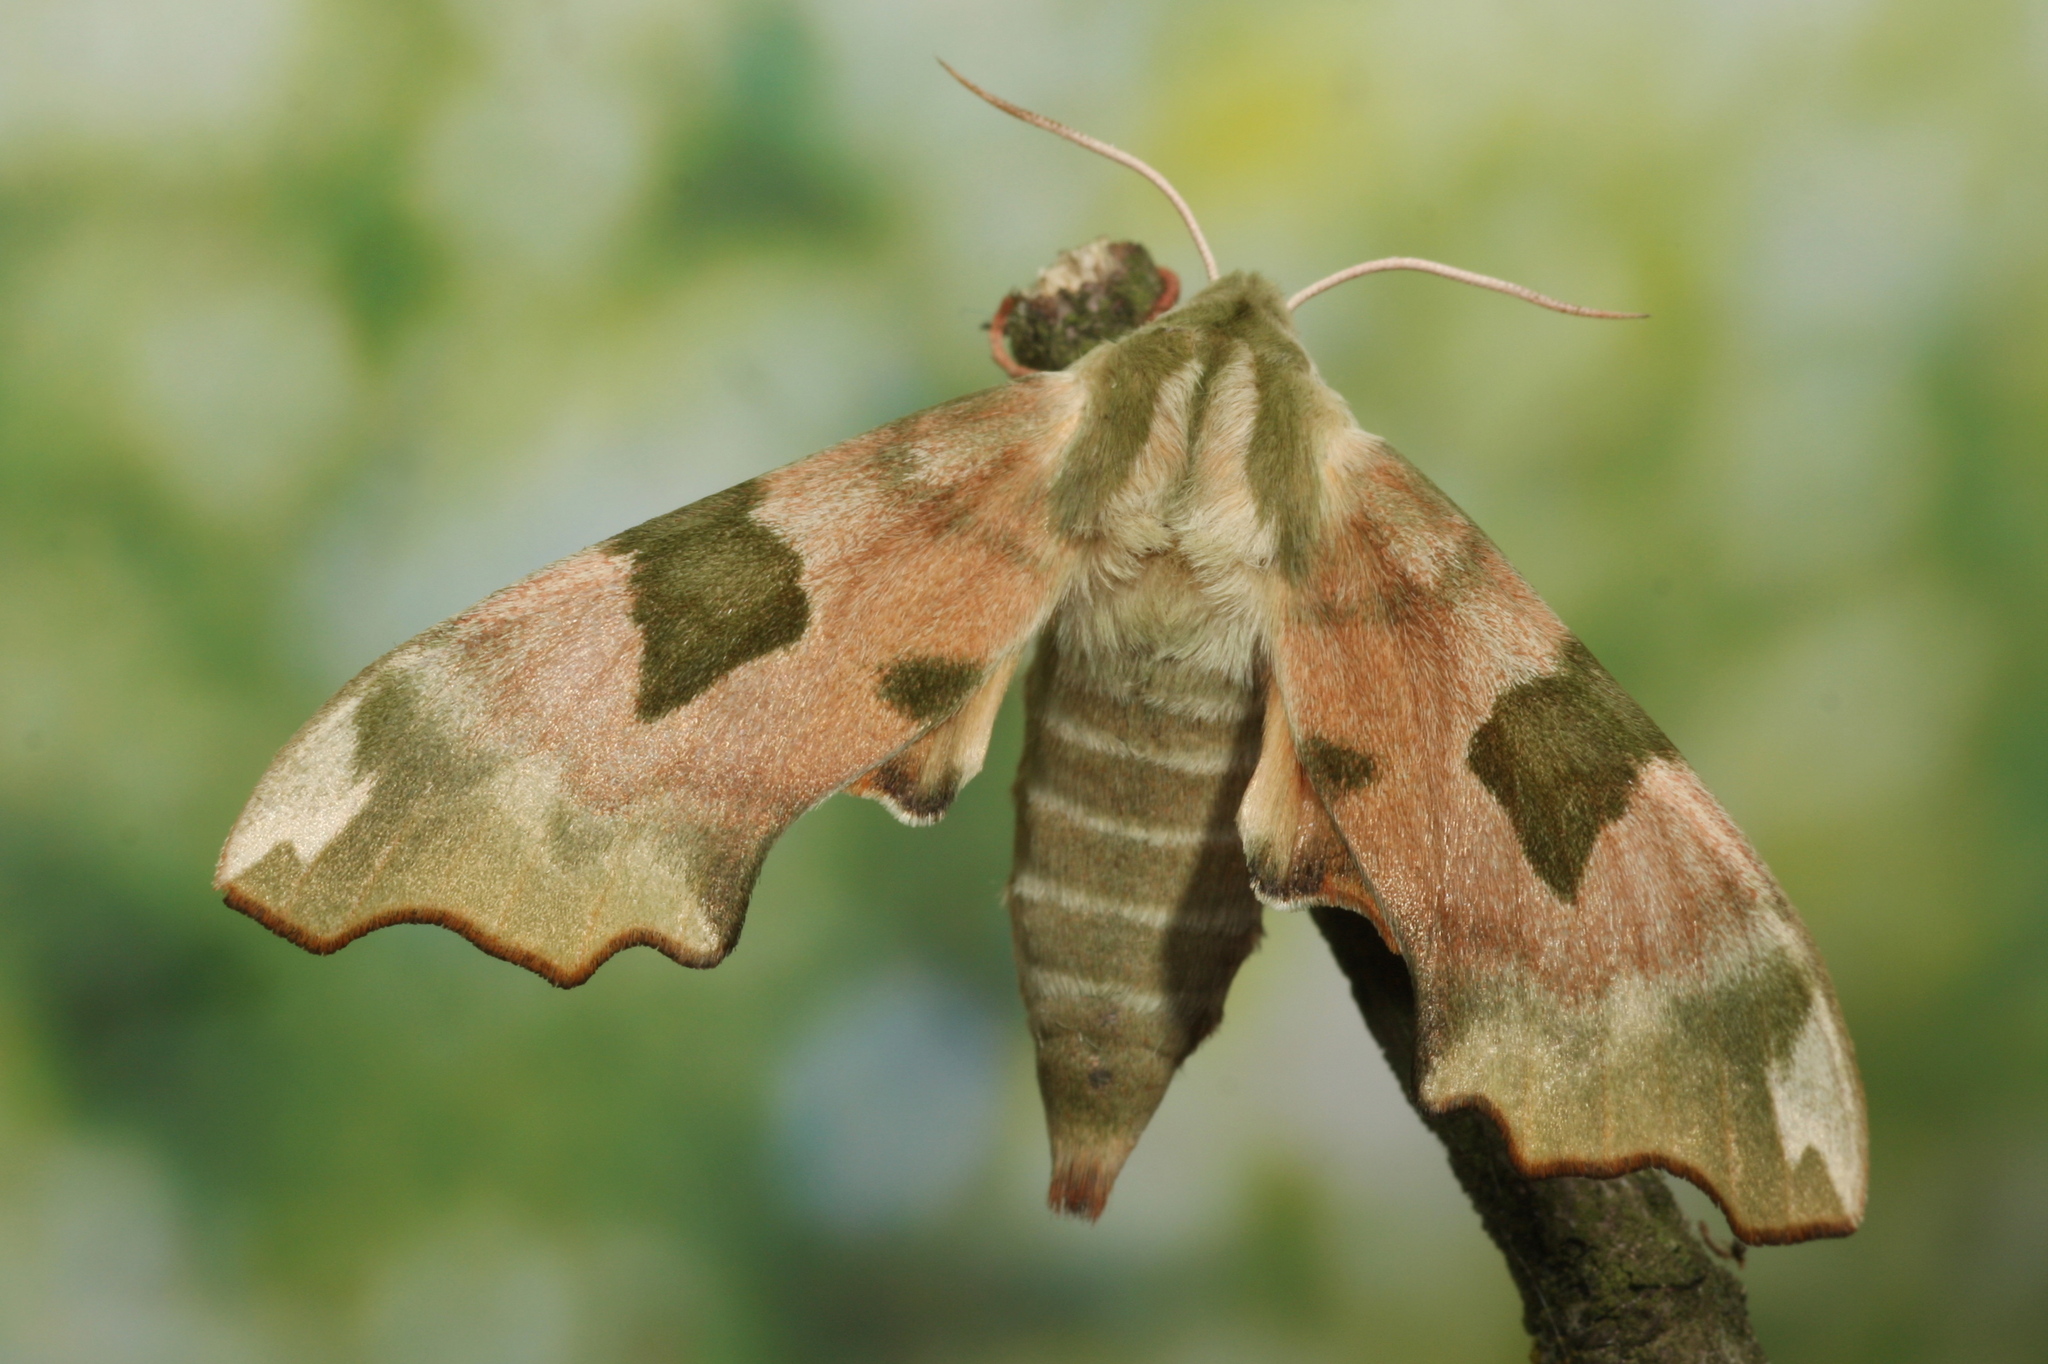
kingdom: Animalia
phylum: Arthropoda
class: Insecta
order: Lepidoptera
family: Sphingidae
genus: Mimas
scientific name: Mimas tiliae
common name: Lime hawk-moth
